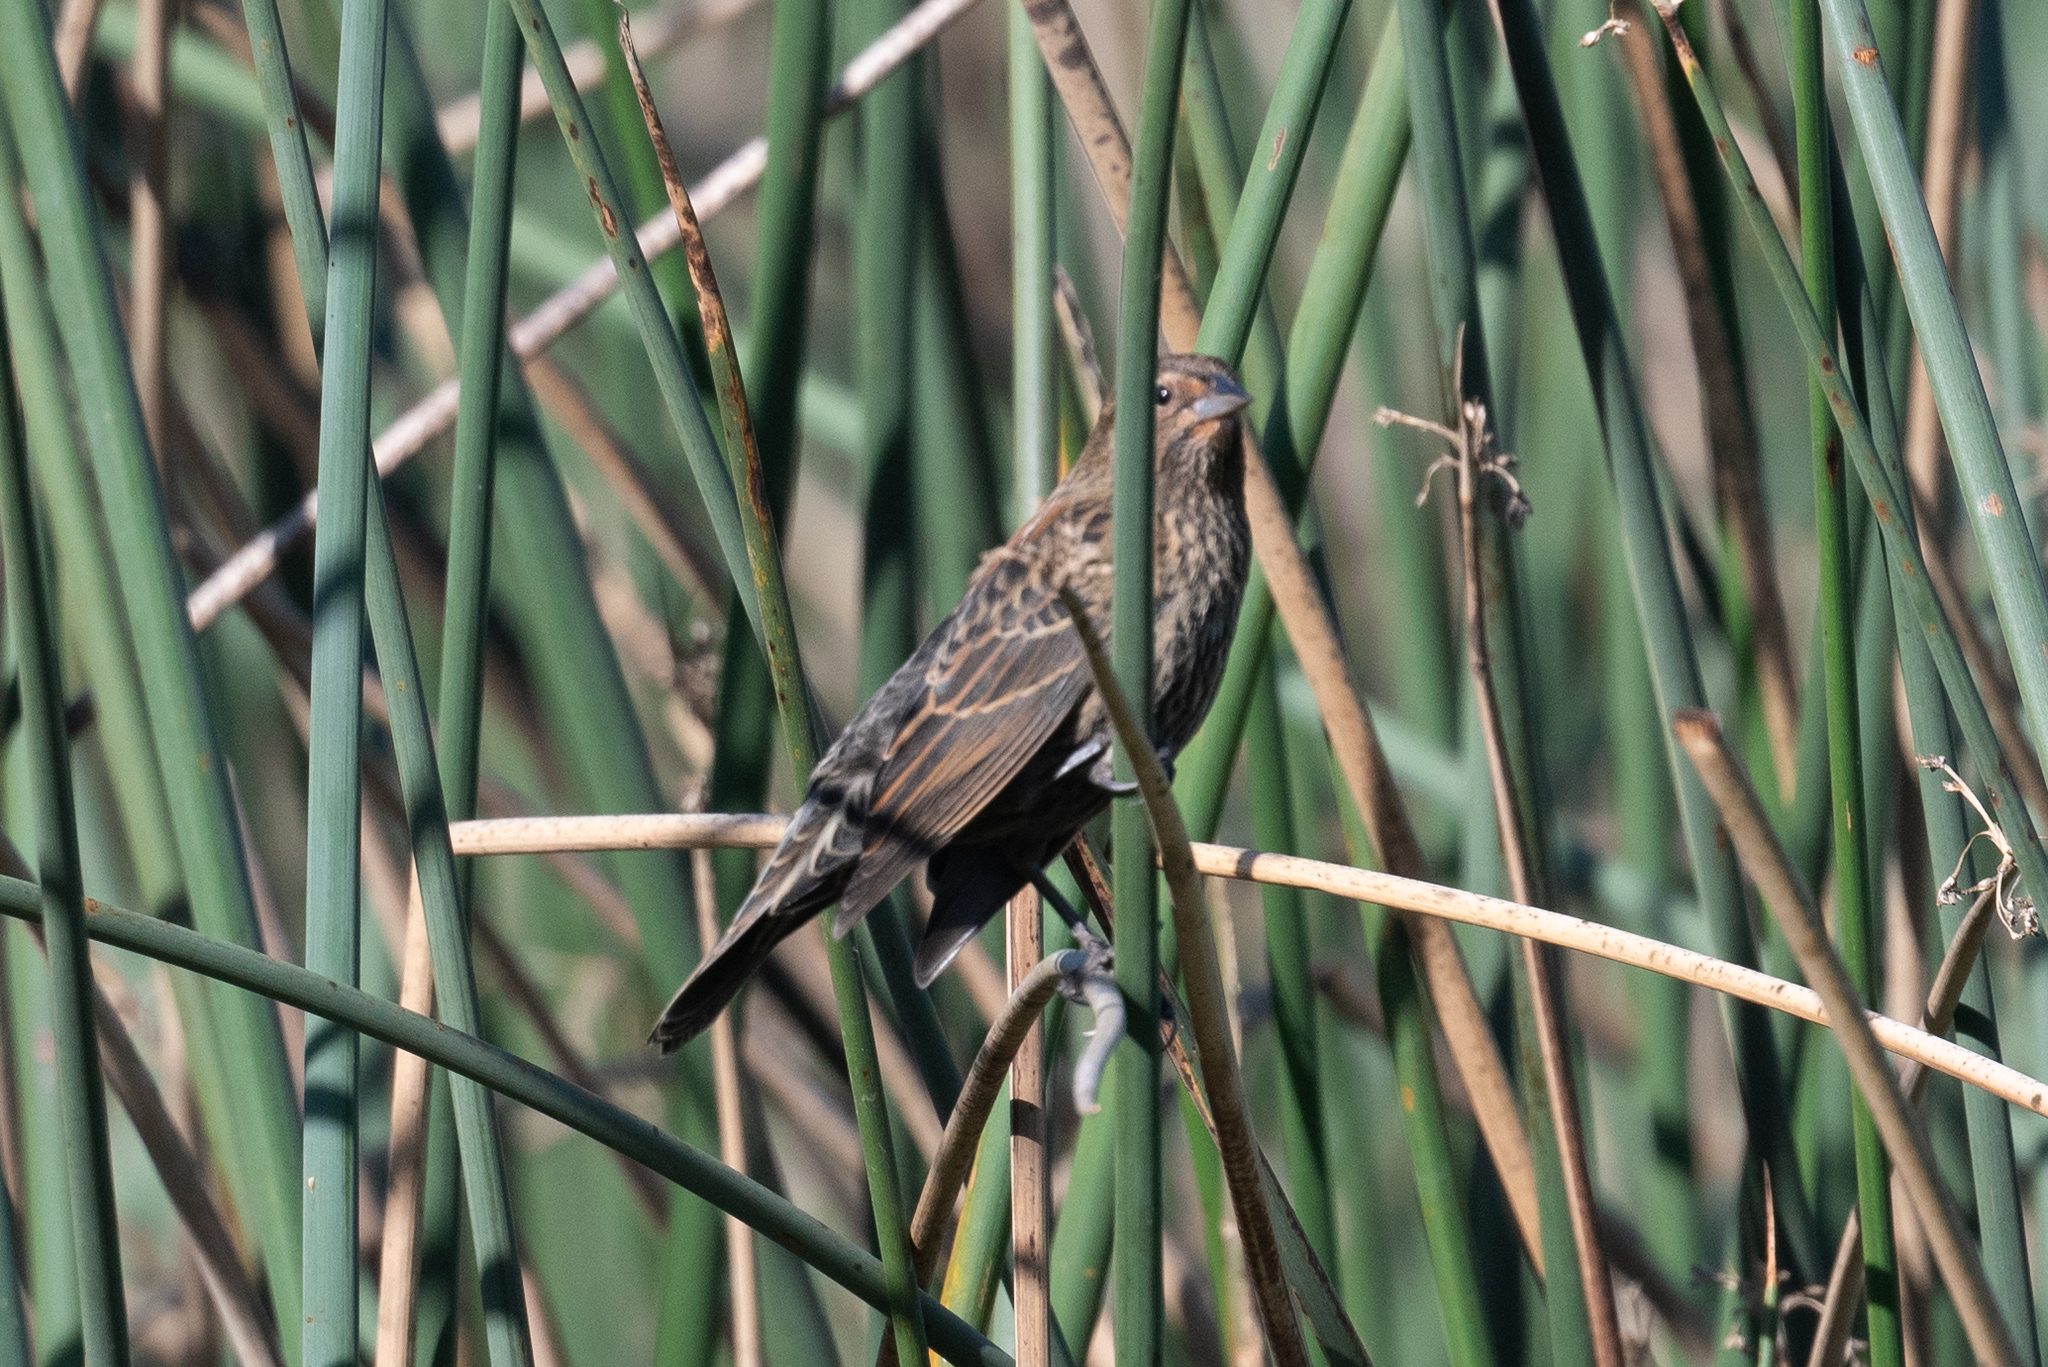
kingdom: Animalia
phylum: Chordata
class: Aves
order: Passeriformes
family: Icteridae
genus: Agelaius
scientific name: Agelaius phoeniceus
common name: Red-winged blackbird
